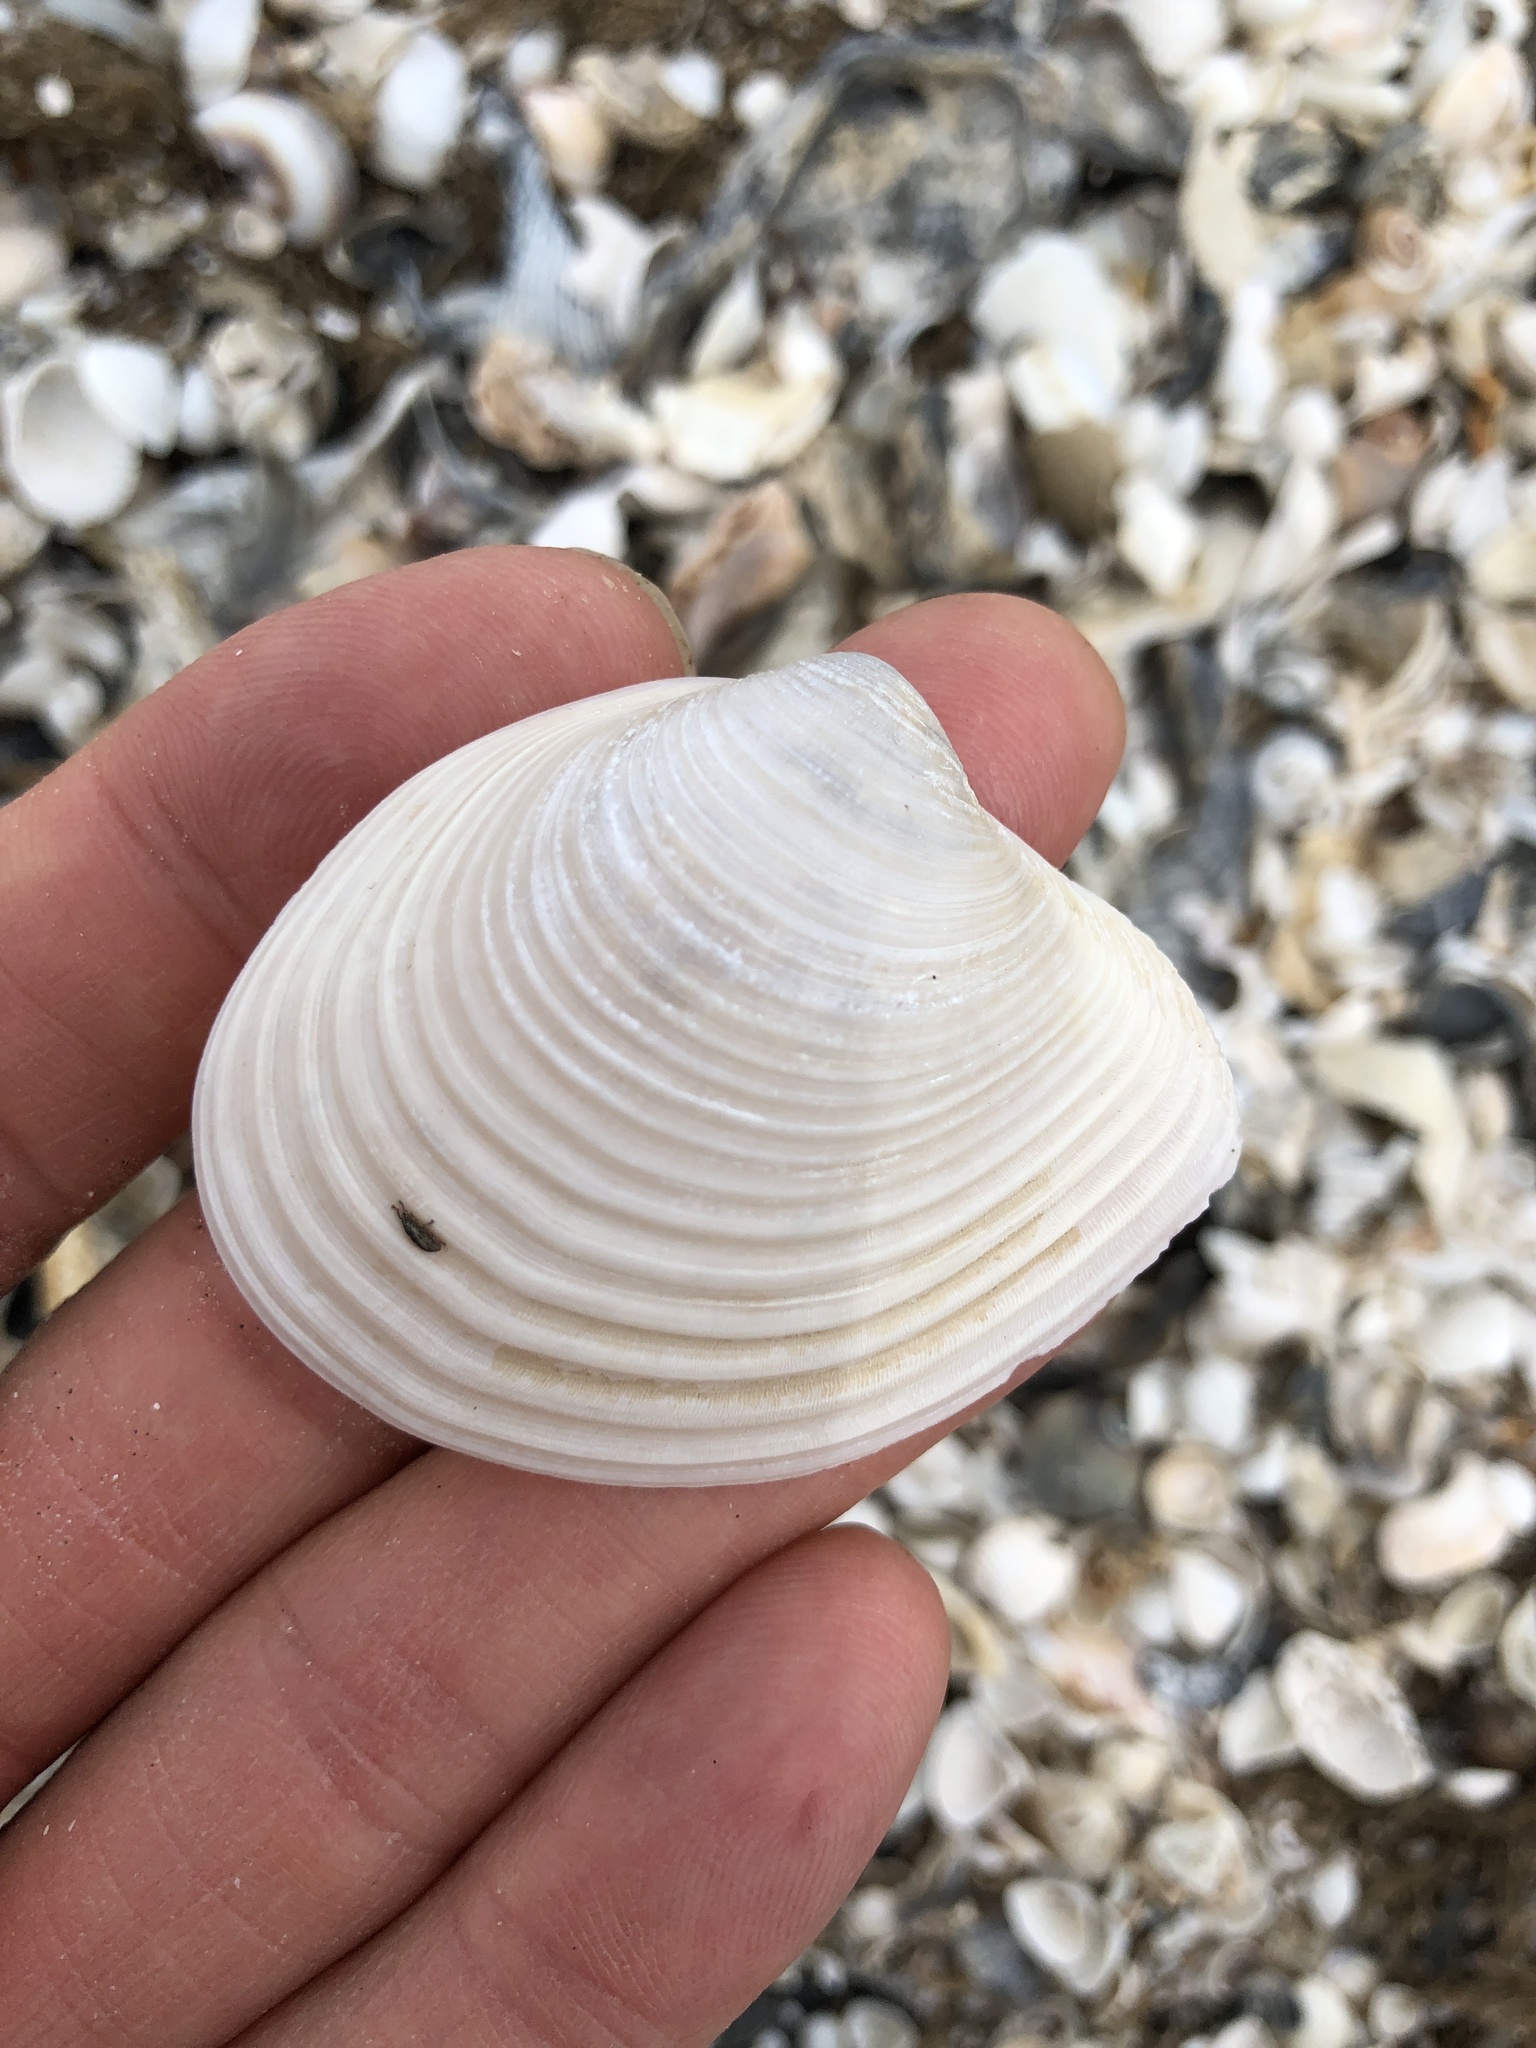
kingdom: Animalia
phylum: Mollusca
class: Bivalvia
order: Venerida
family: Anatinellidae
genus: Raeta
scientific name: Raeta plicatella
